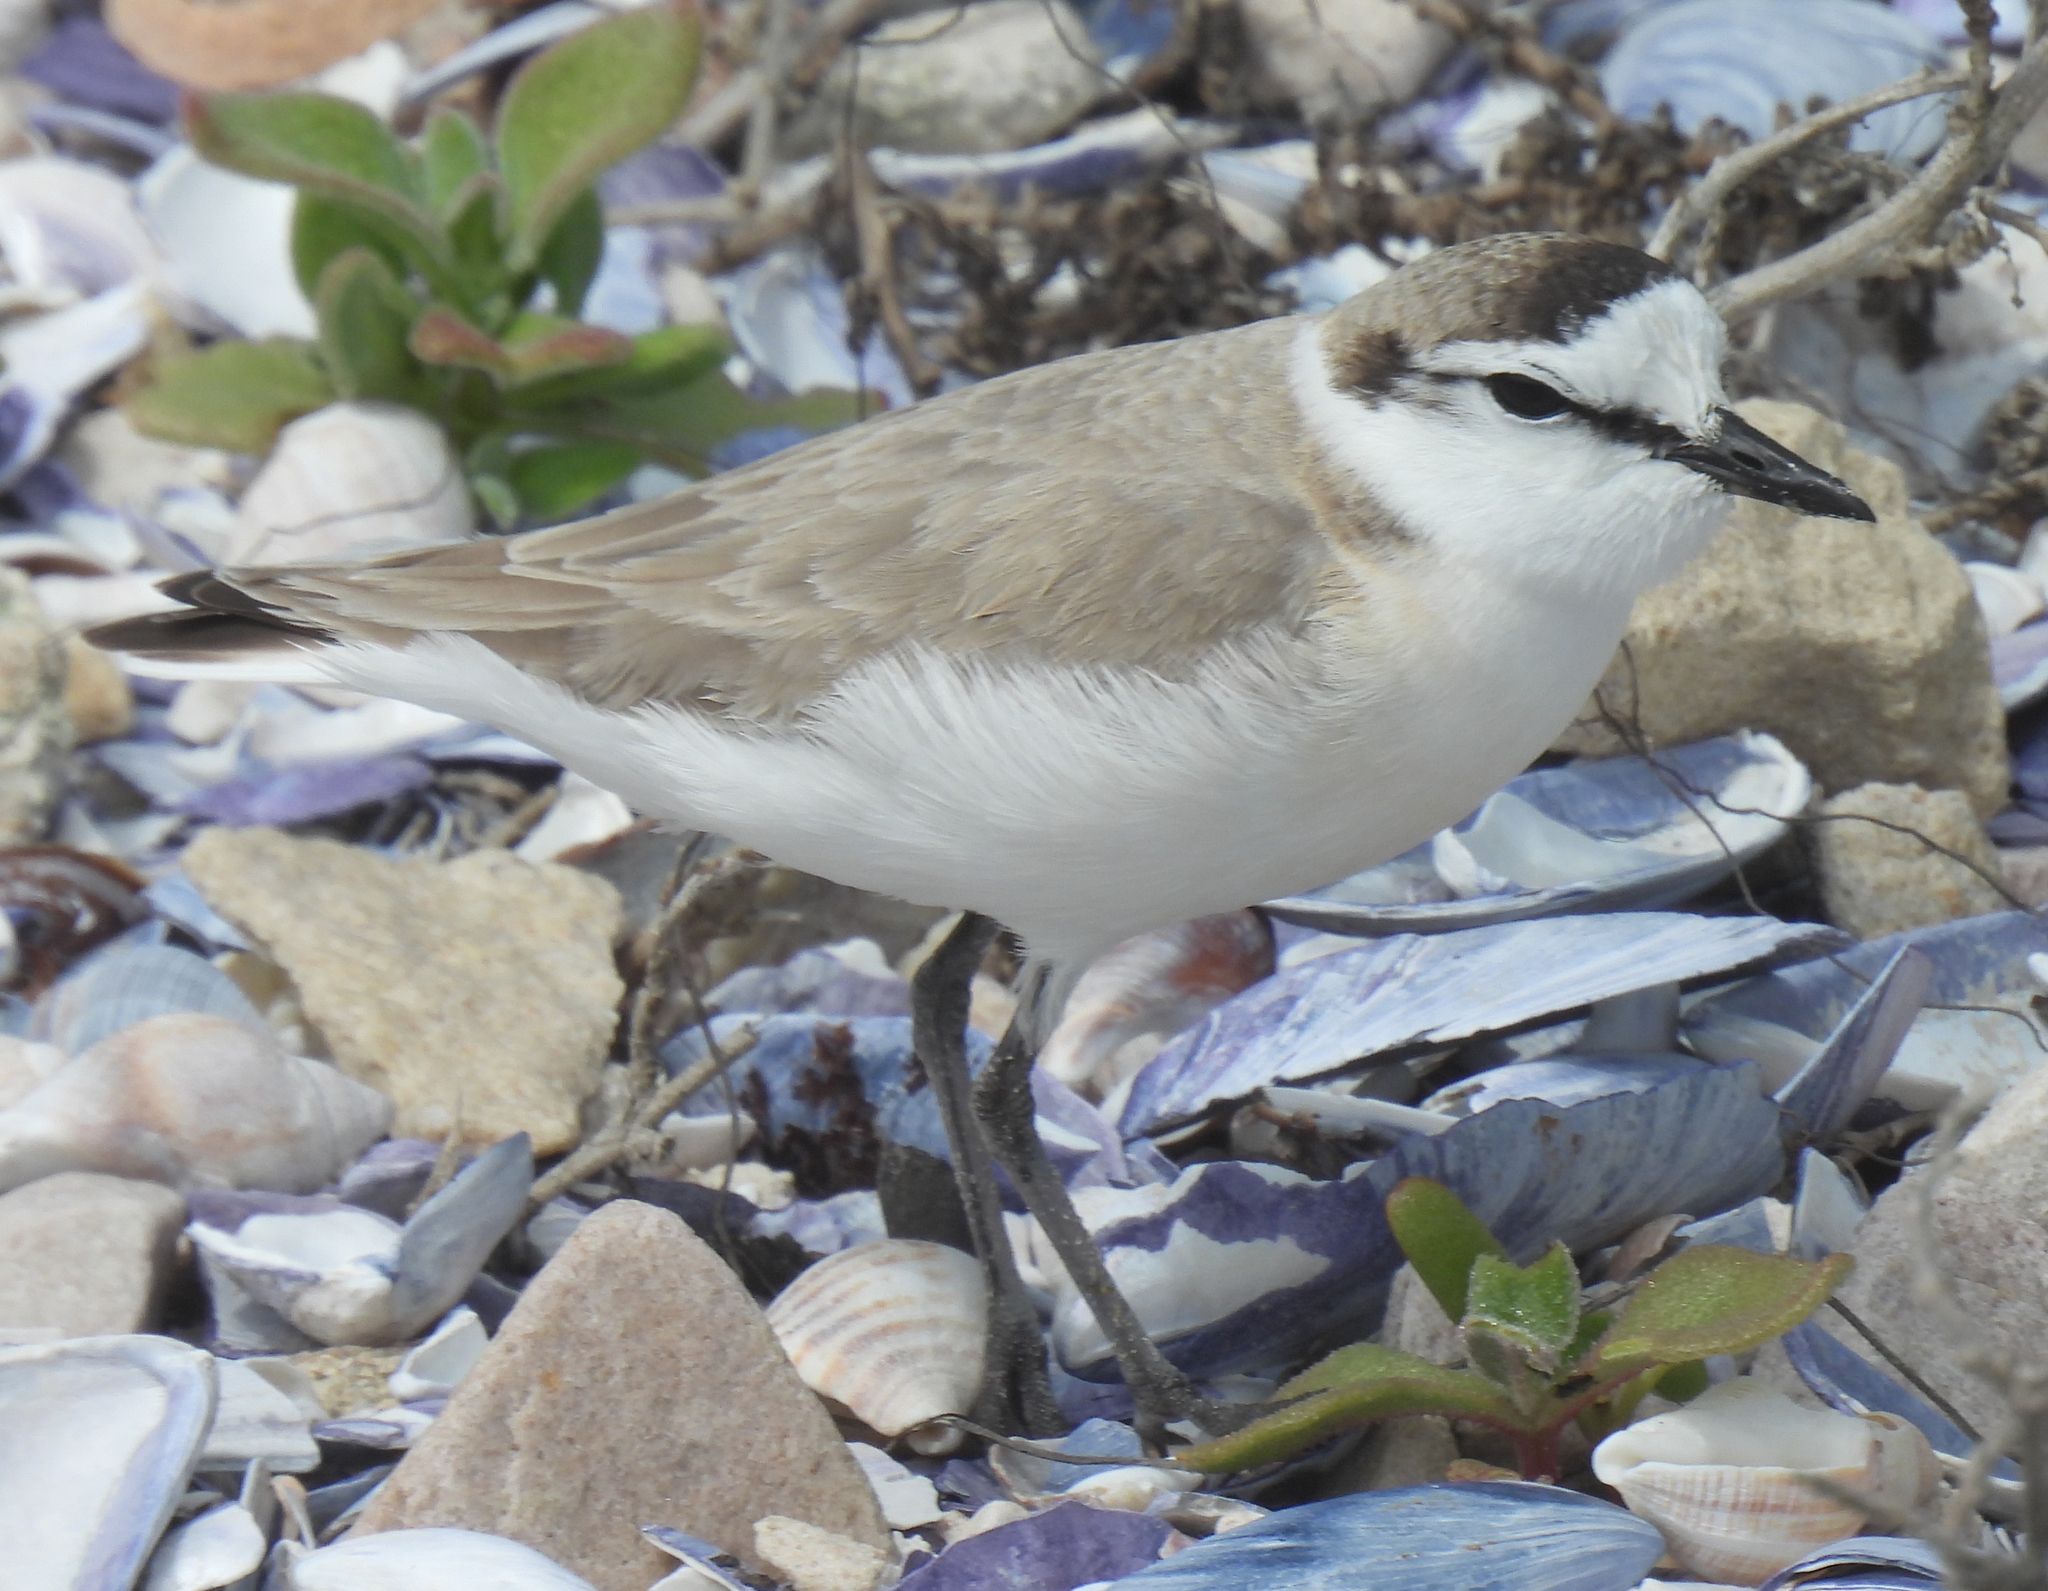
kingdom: Animalia
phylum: Chordata
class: Aves
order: Charadriiformes
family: Charadriidae
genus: Anarhynchus
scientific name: Anarhynchus
